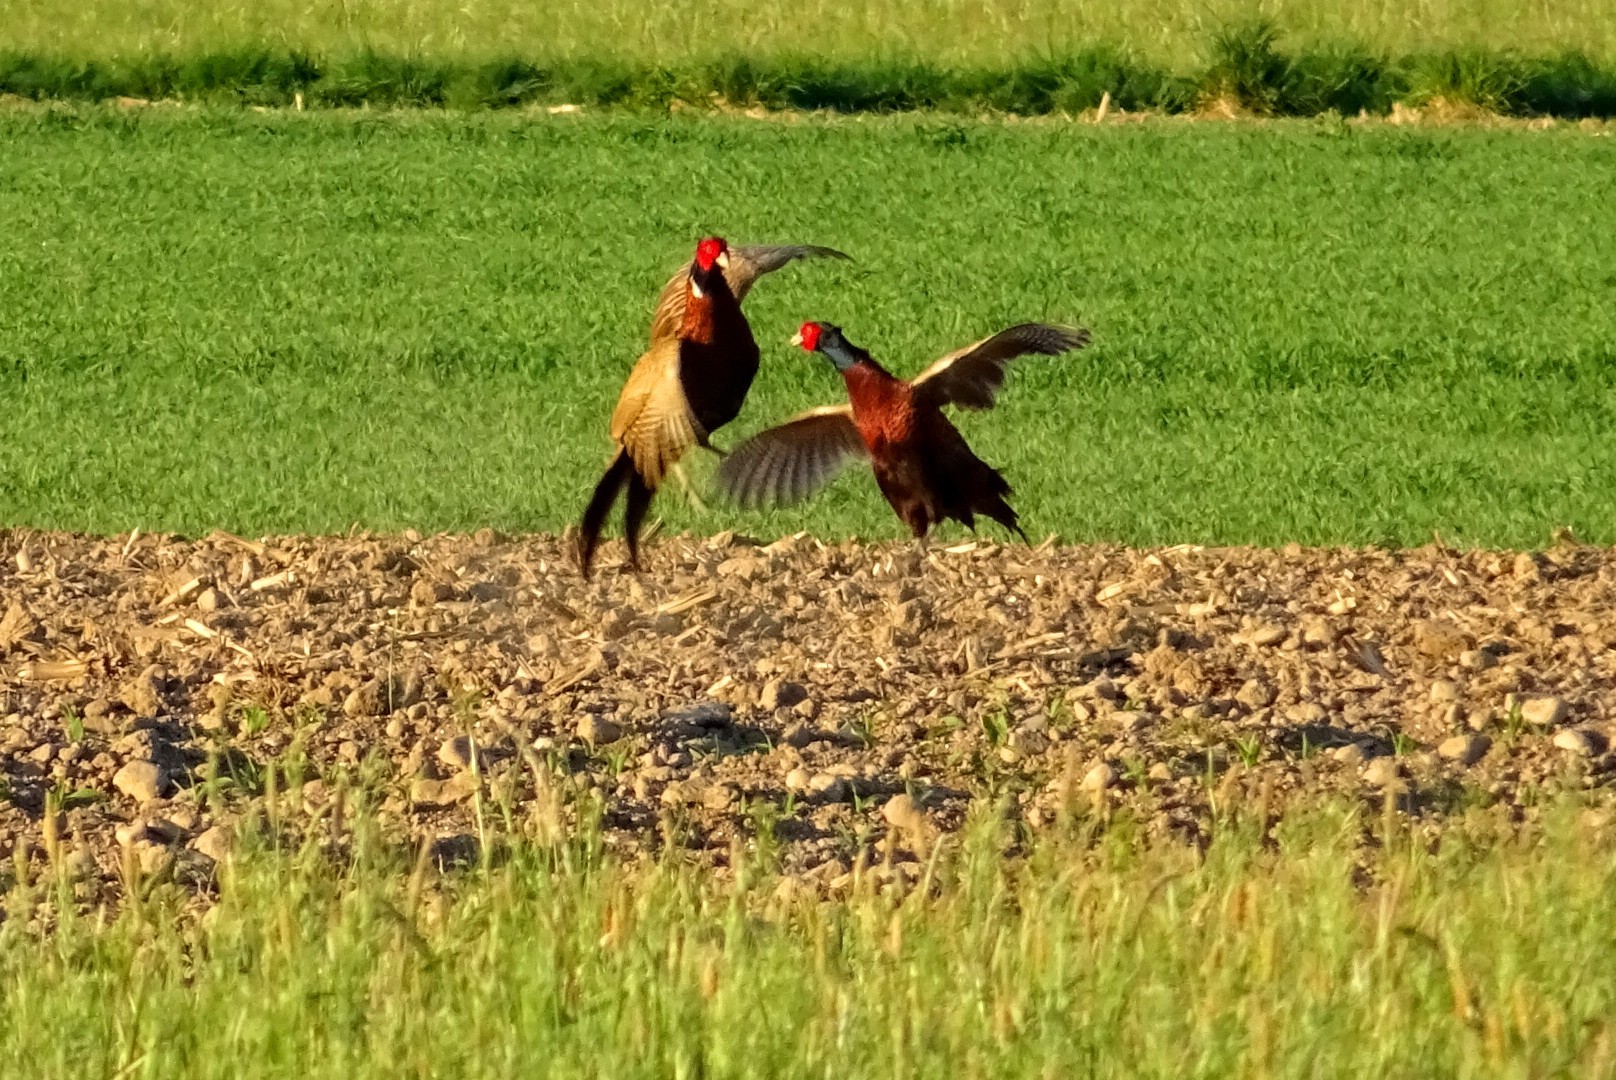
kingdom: Animalia
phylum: Chordata
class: Aves
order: Galliformes
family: Phasianidae
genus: Phasianus
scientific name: Phasianus colchicus
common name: Common pheasant
